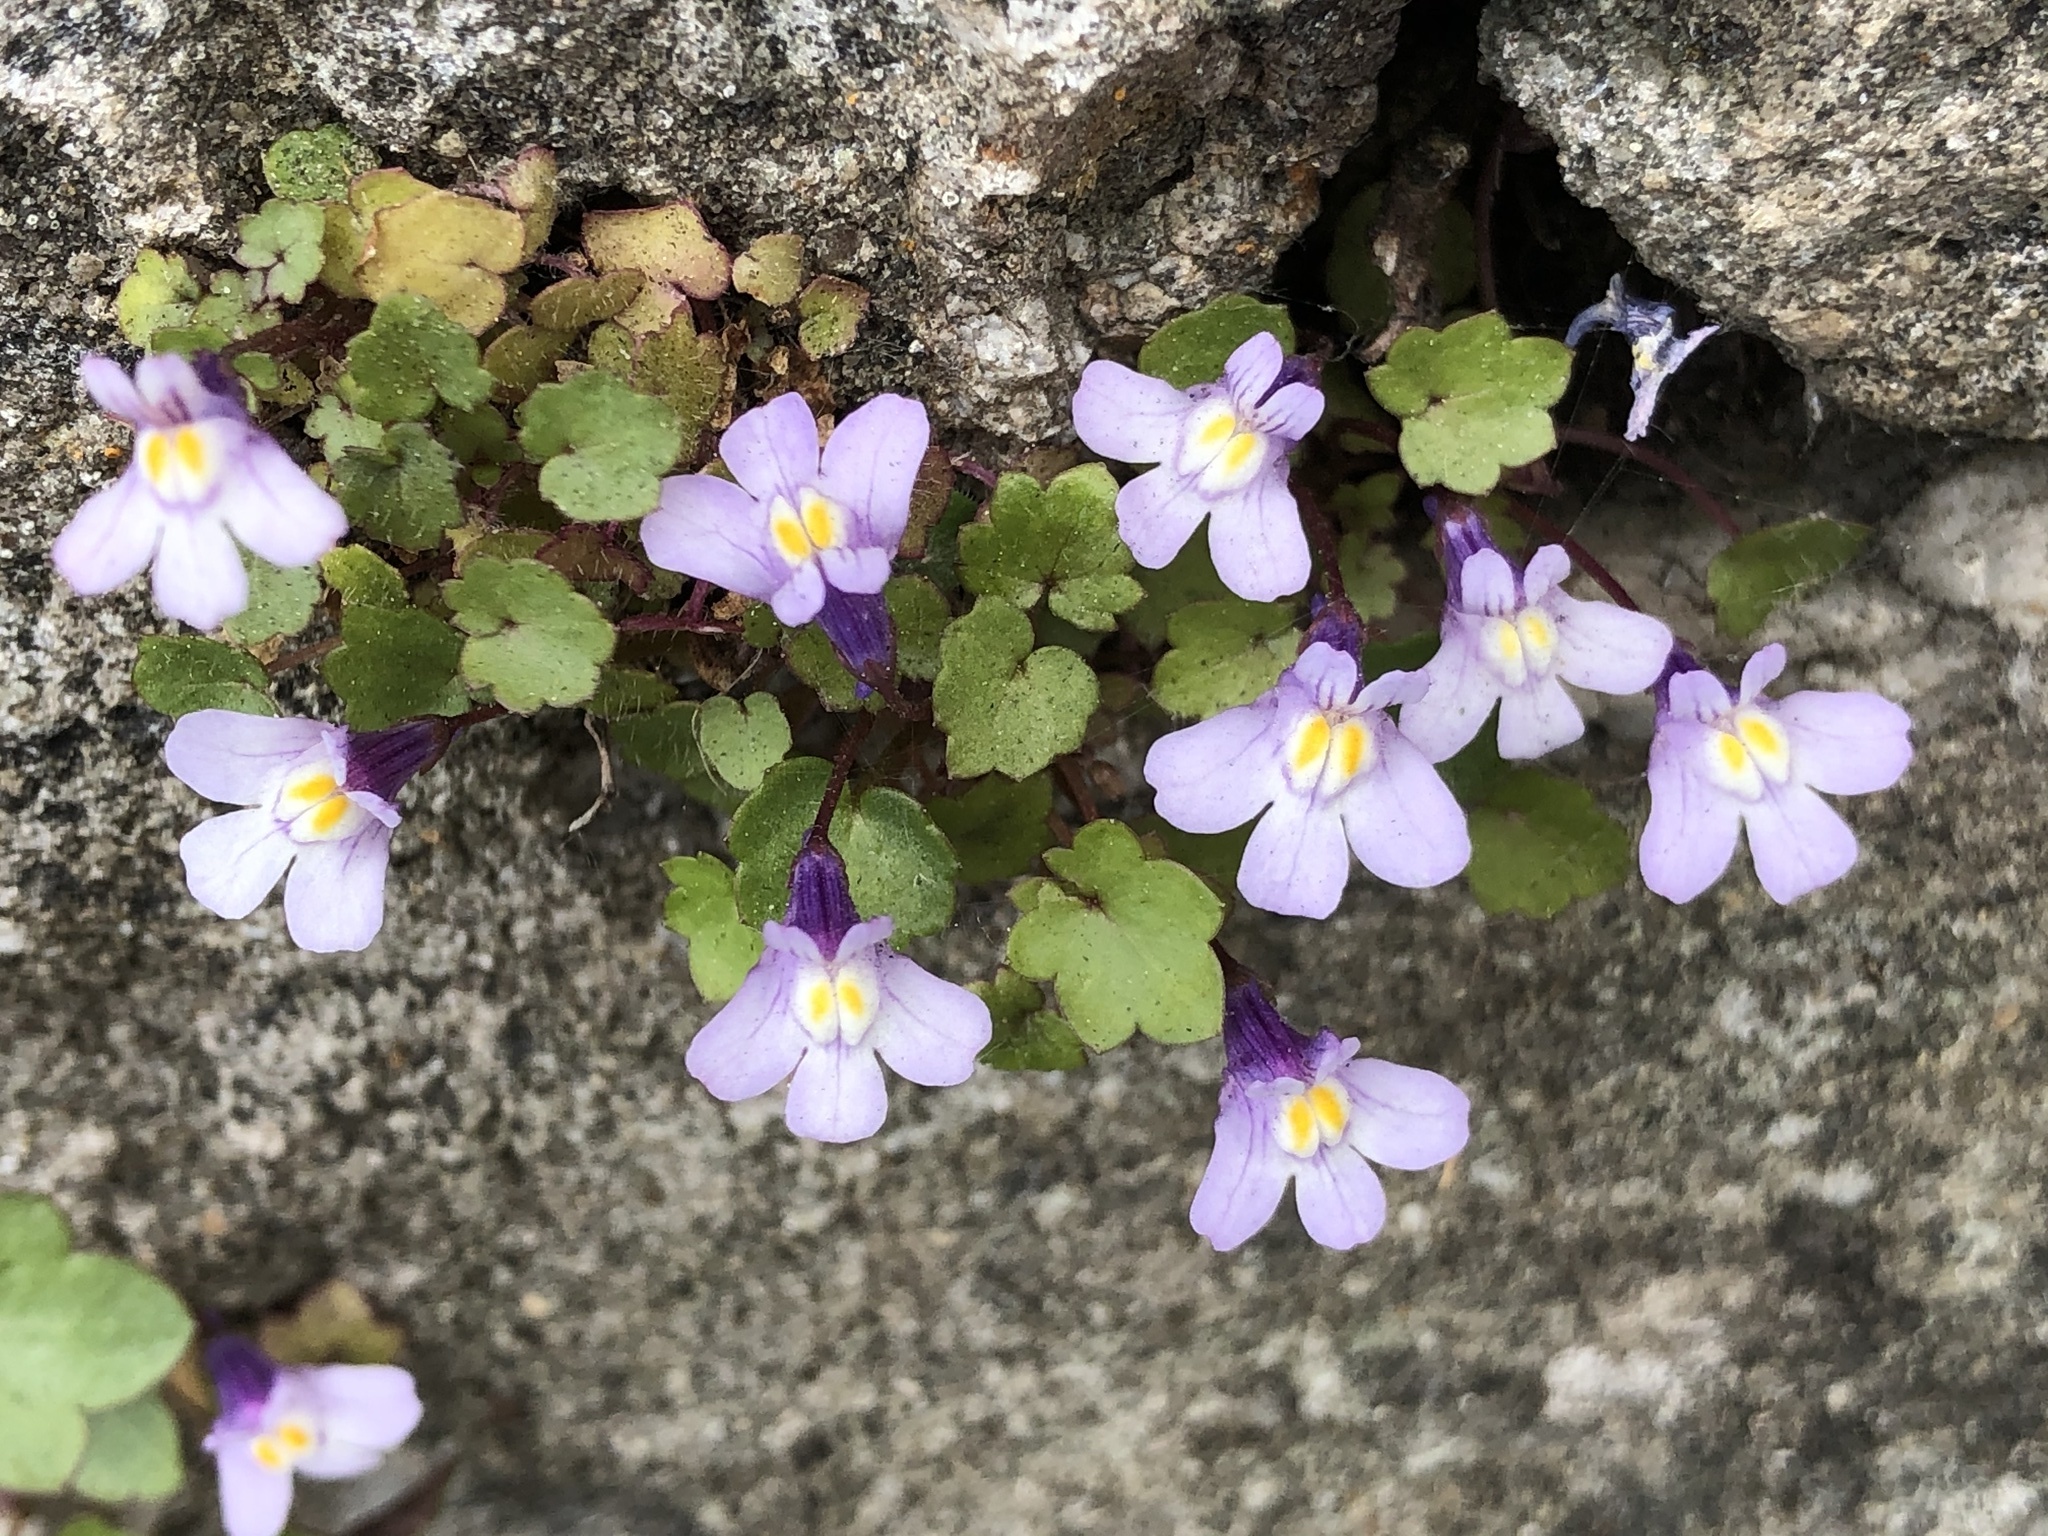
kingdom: Plantae
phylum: Tracheophyta
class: Magnoliopsida
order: Lamiales
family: Plantaginaceae
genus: Cymbalaria
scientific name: Cymbalaria muralis
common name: Ivy-leaved toadflax
